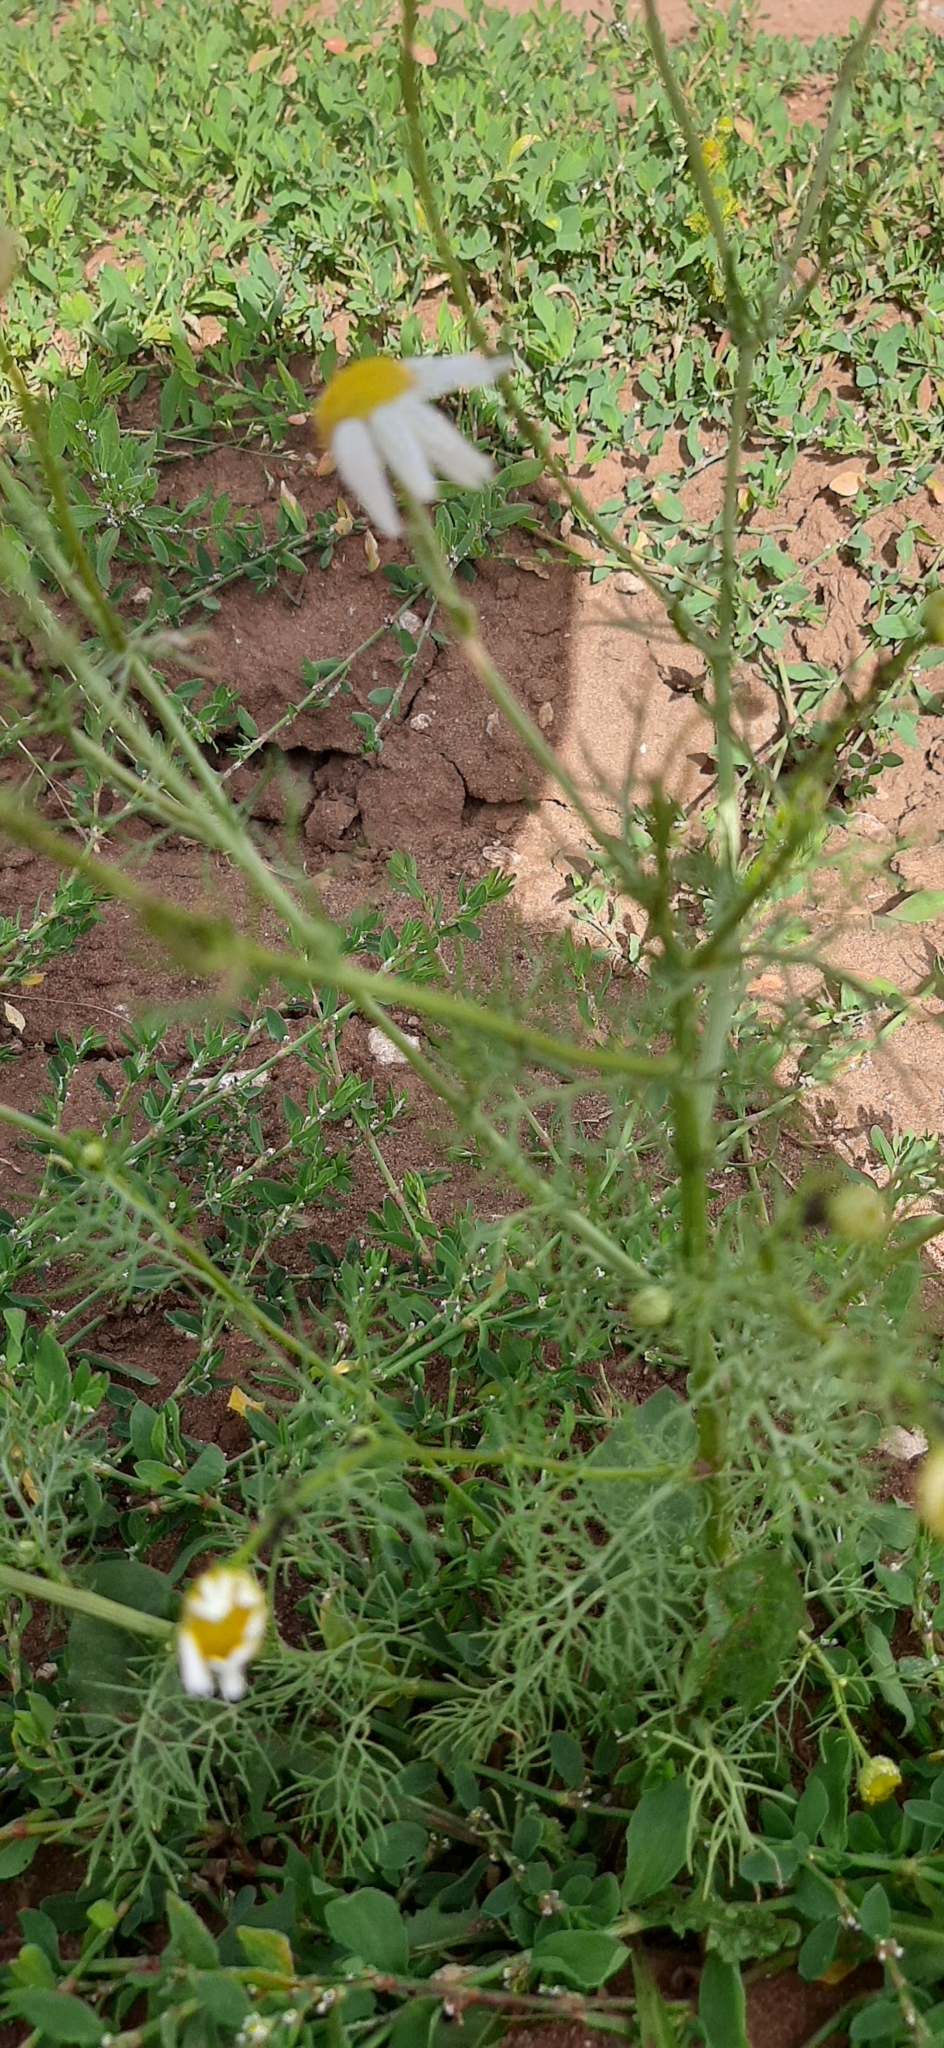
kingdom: Plantae
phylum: Tracheophyta
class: Magnoliopsida
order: Asterales
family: Asteraceae
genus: Tripleurospermum
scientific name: Tripleurospermum inodorum
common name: Scentless mayweed
